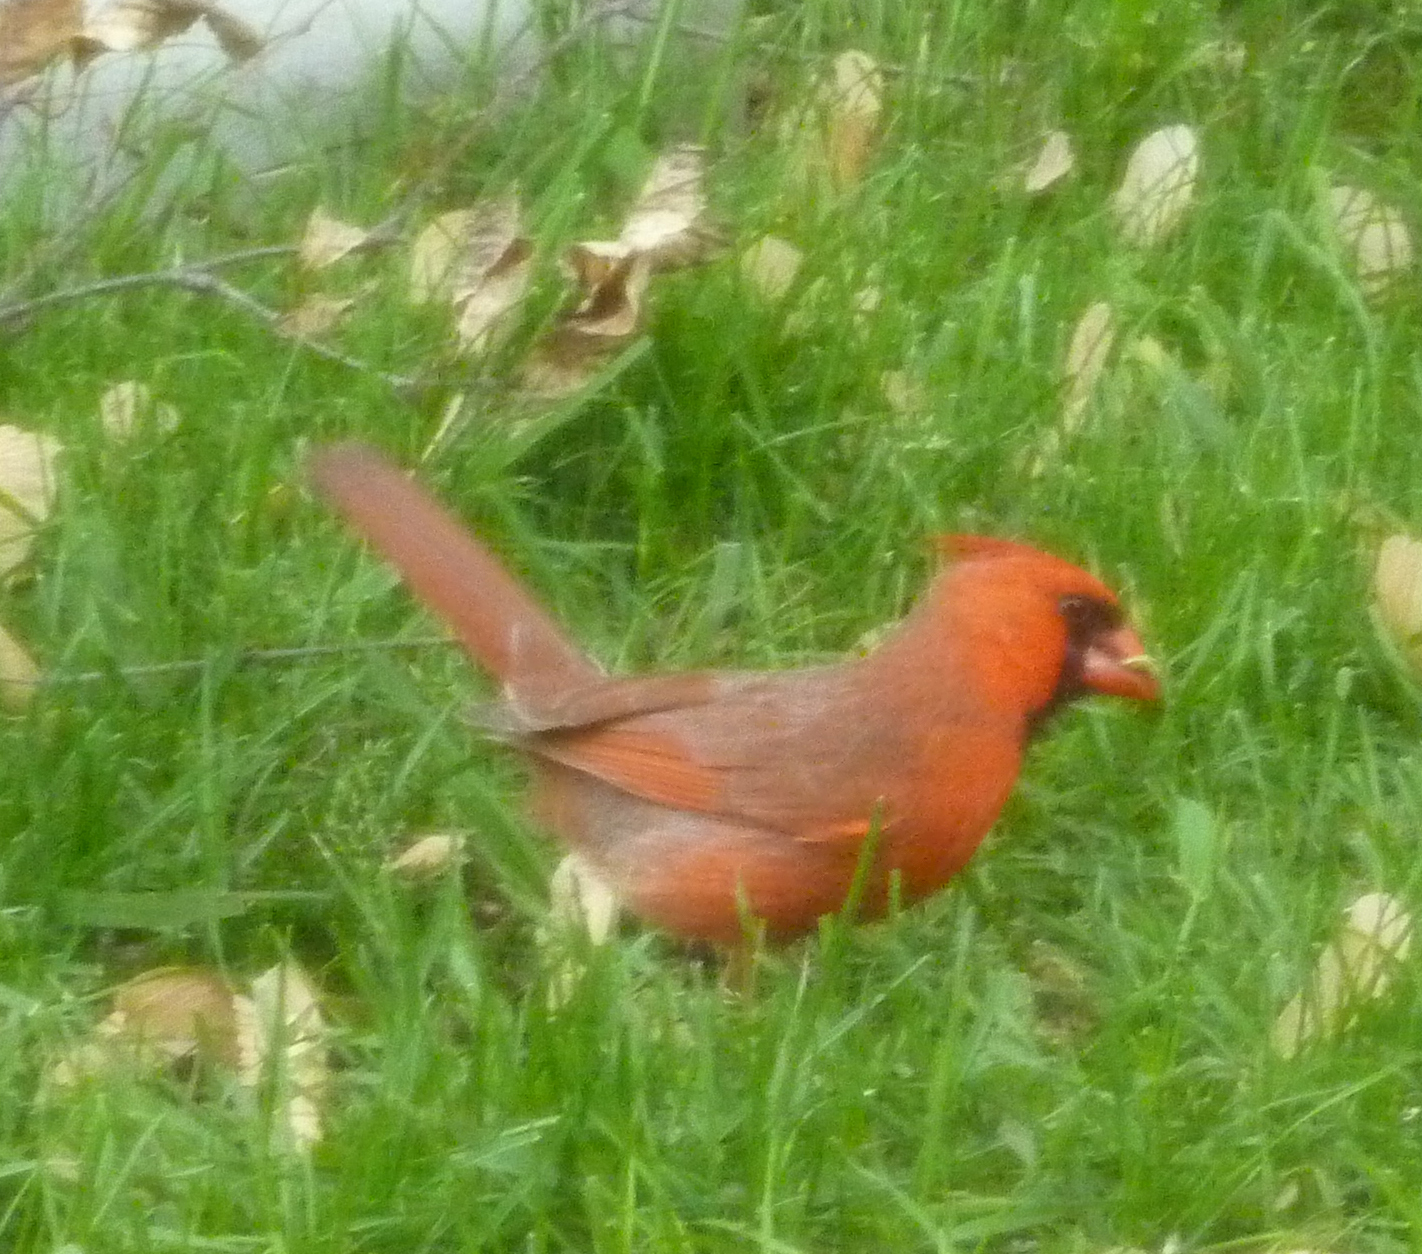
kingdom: Animalia
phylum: Chordata
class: Aves
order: Passeriformes
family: Cardinalidae
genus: Cardinalis
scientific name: Cardinalis cardinalis
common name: Northern cardinal
